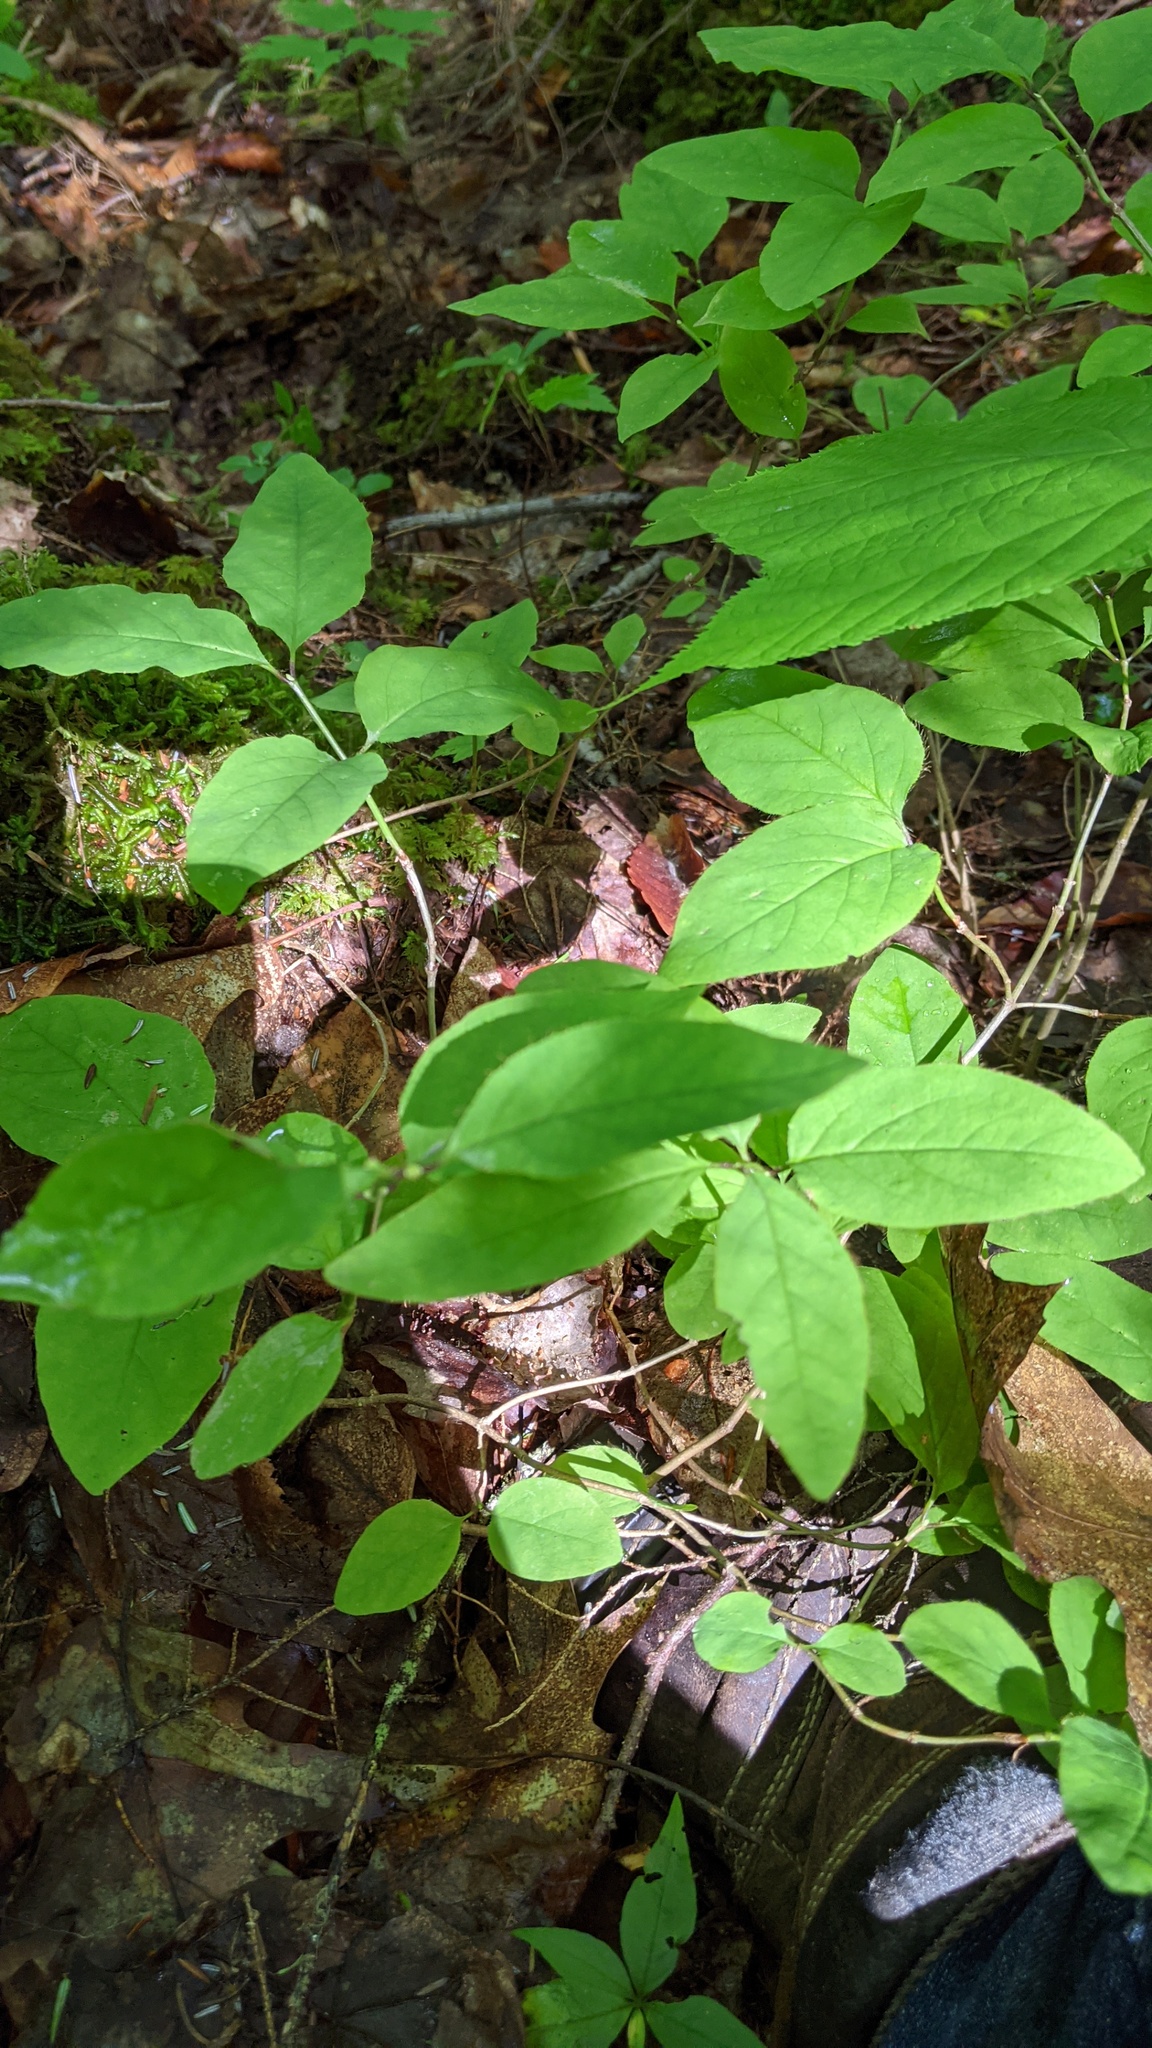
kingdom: Plantae
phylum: Tracheophyta
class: Magnoliopsida
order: Dipsacales
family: Caprifoliaceae
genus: Lonicera
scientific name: Lonicera canadensis
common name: American fly-honeysuckle
